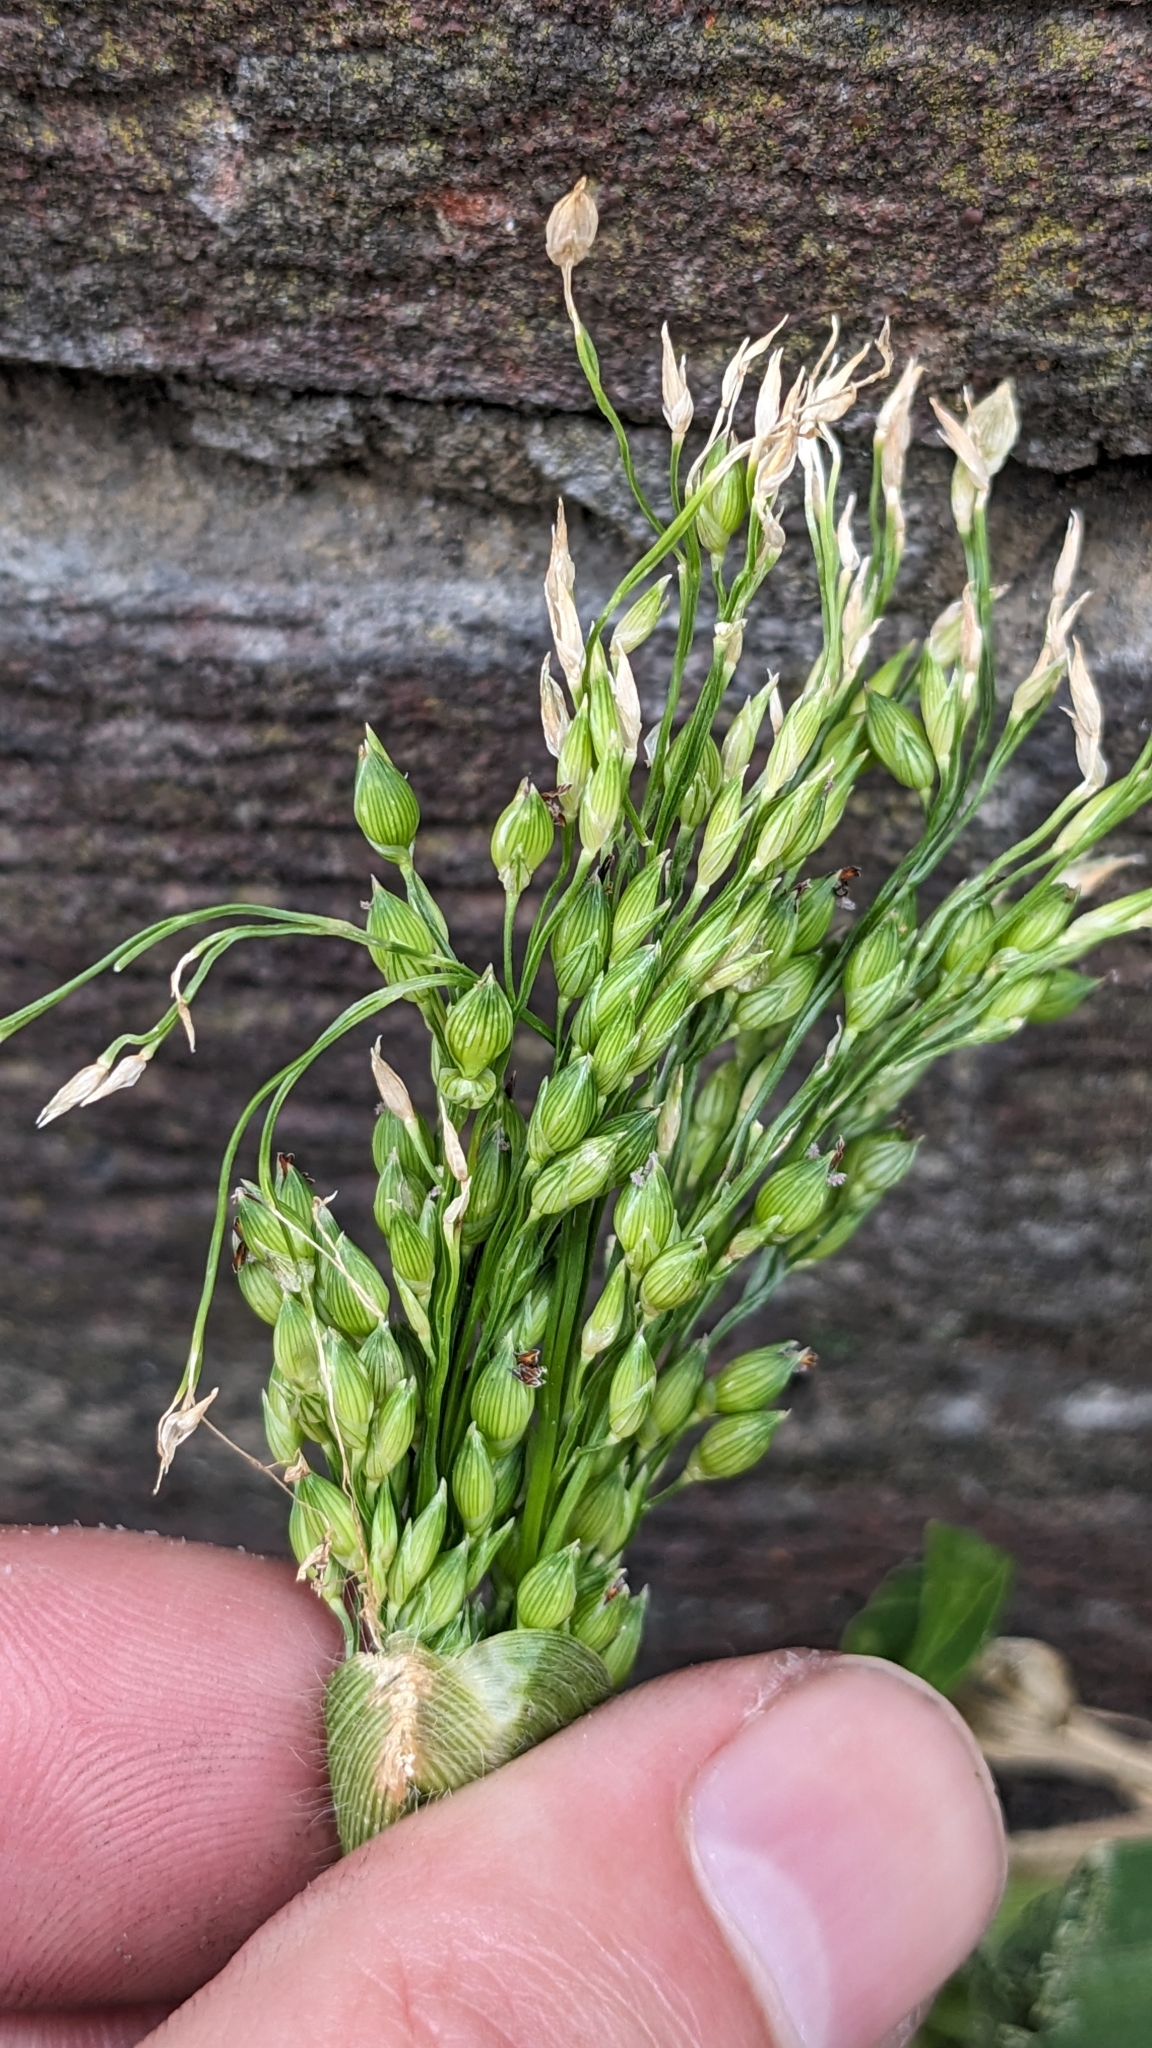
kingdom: Plantae
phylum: Tracheophyta
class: Liliopsida
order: Poales
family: Poaceae
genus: Panicum
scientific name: Panicum miliaceum
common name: Common millet
